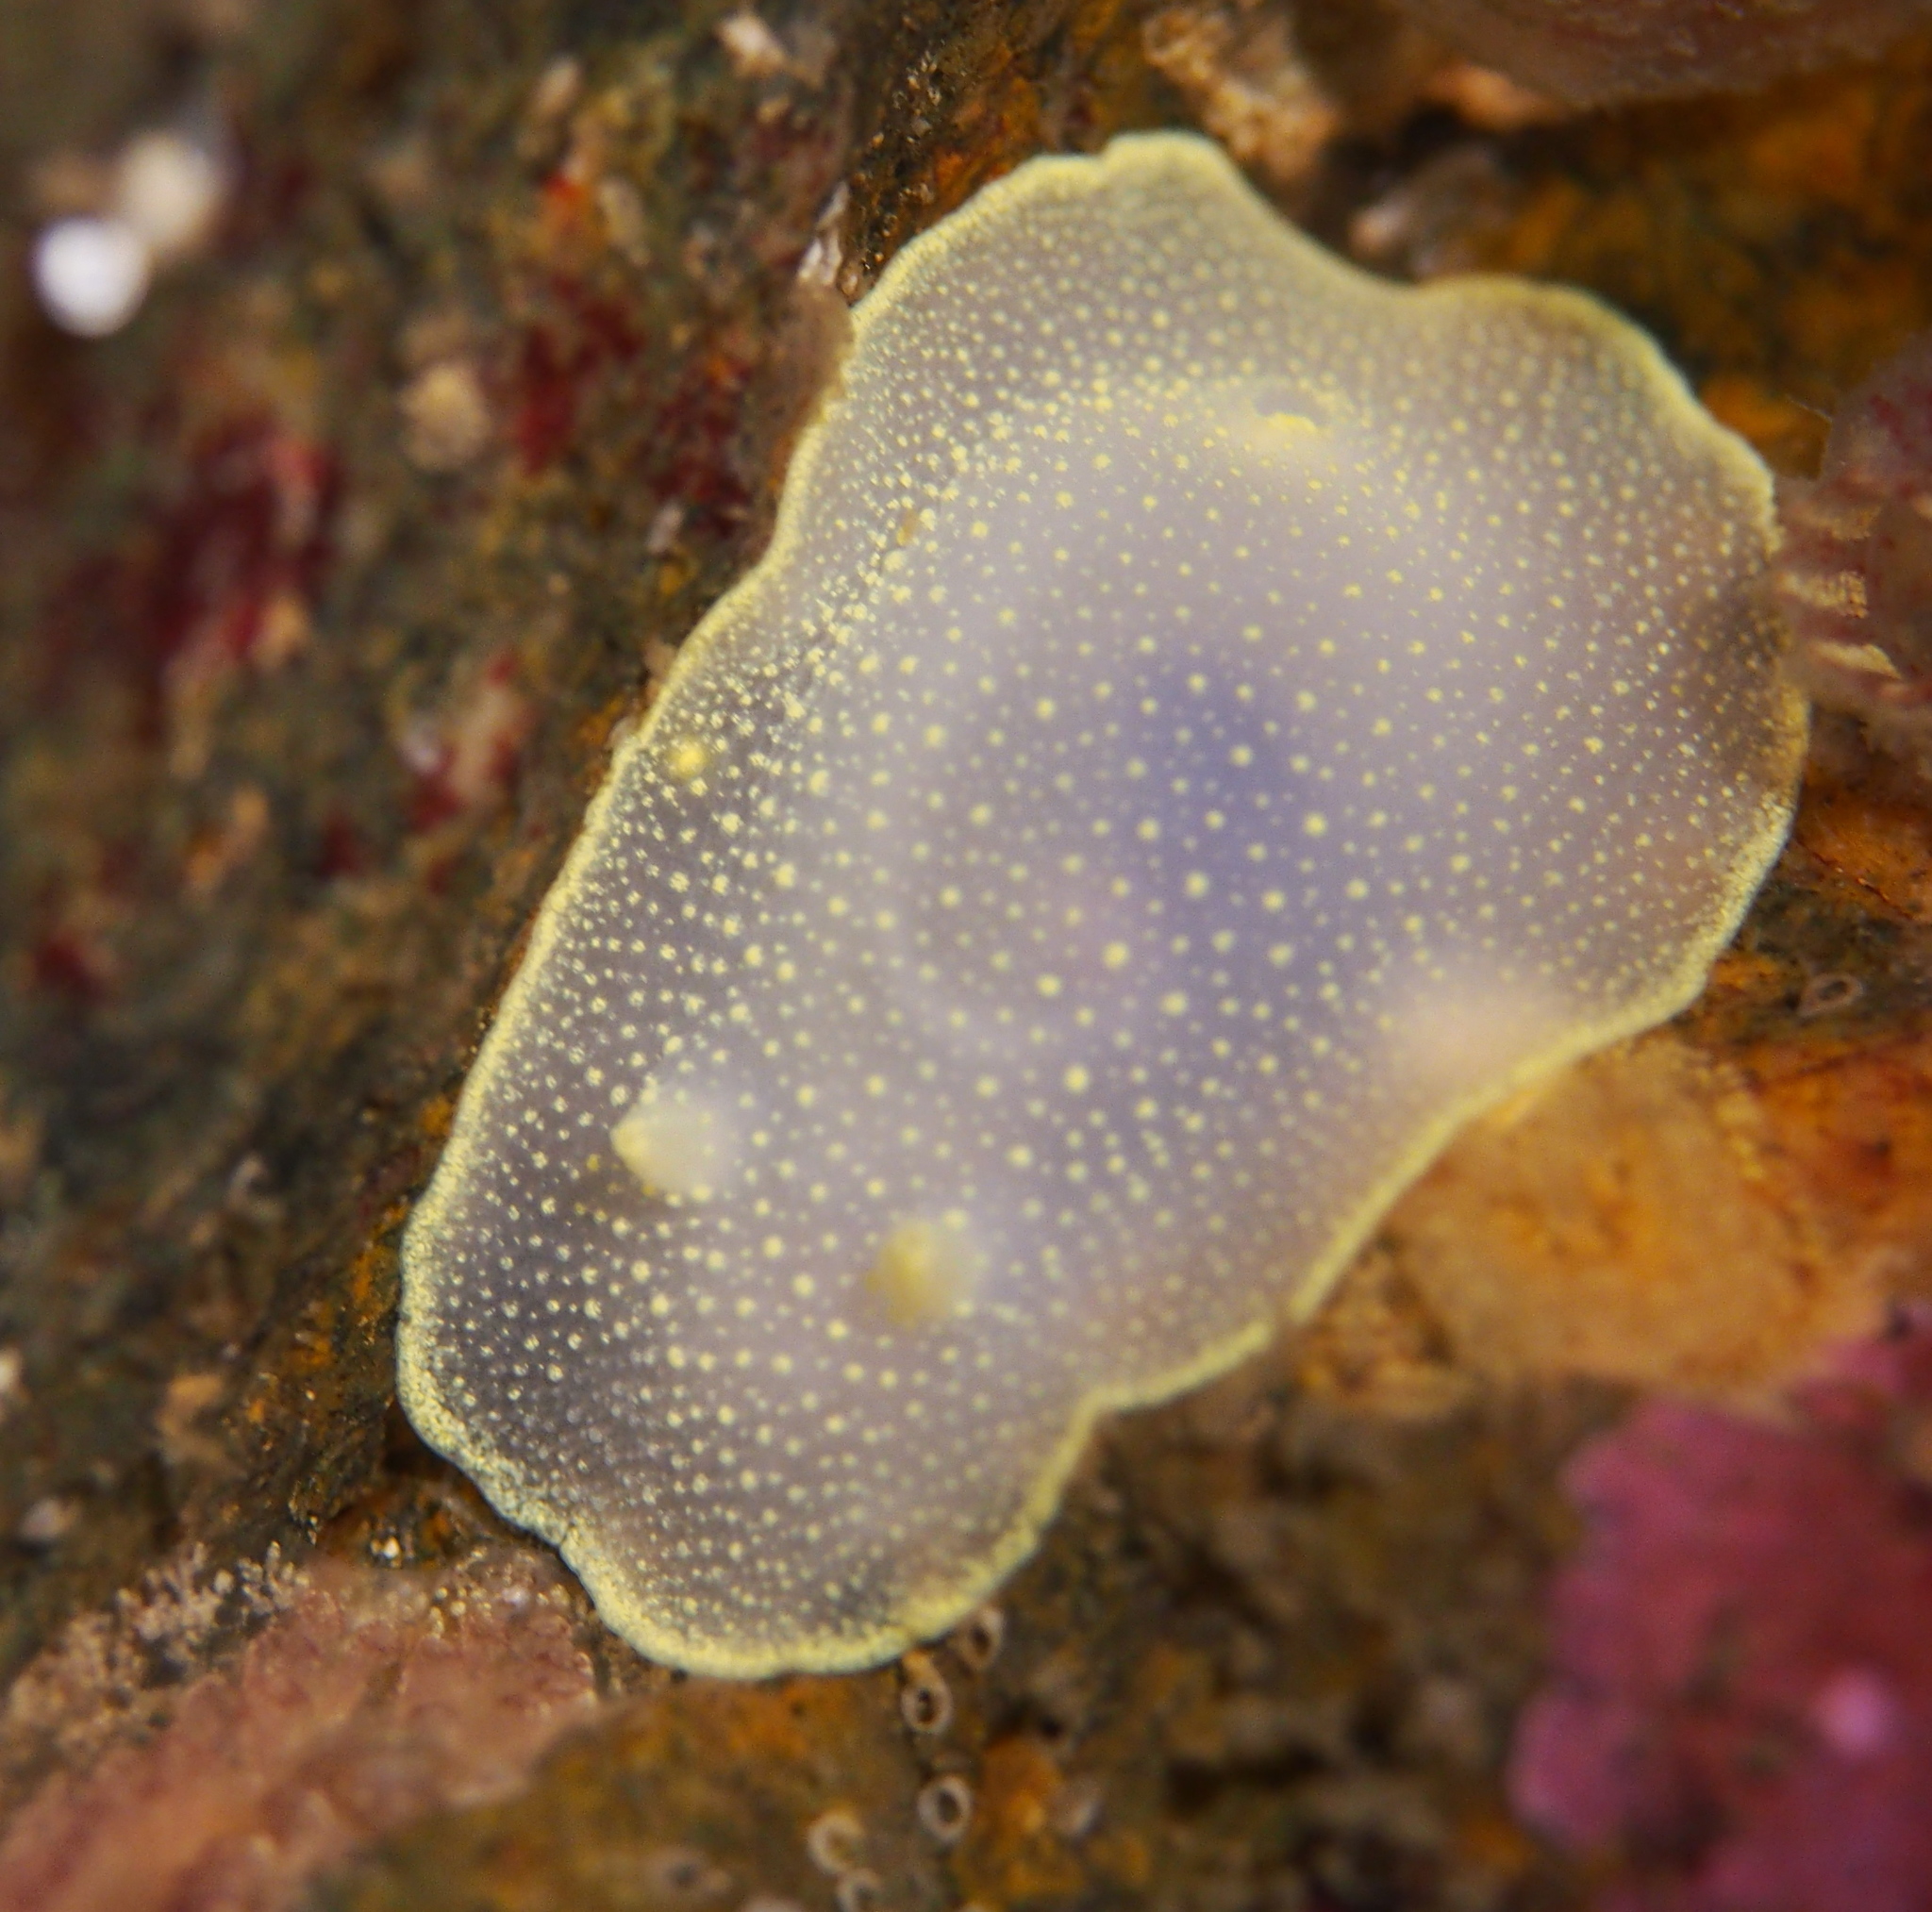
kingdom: Animalia
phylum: Mollusca
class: Gastropoda
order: Nudibranchia
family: Cadlinidae
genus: Cadlina
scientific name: Cadlina laevis
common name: White atlantic cadlina
